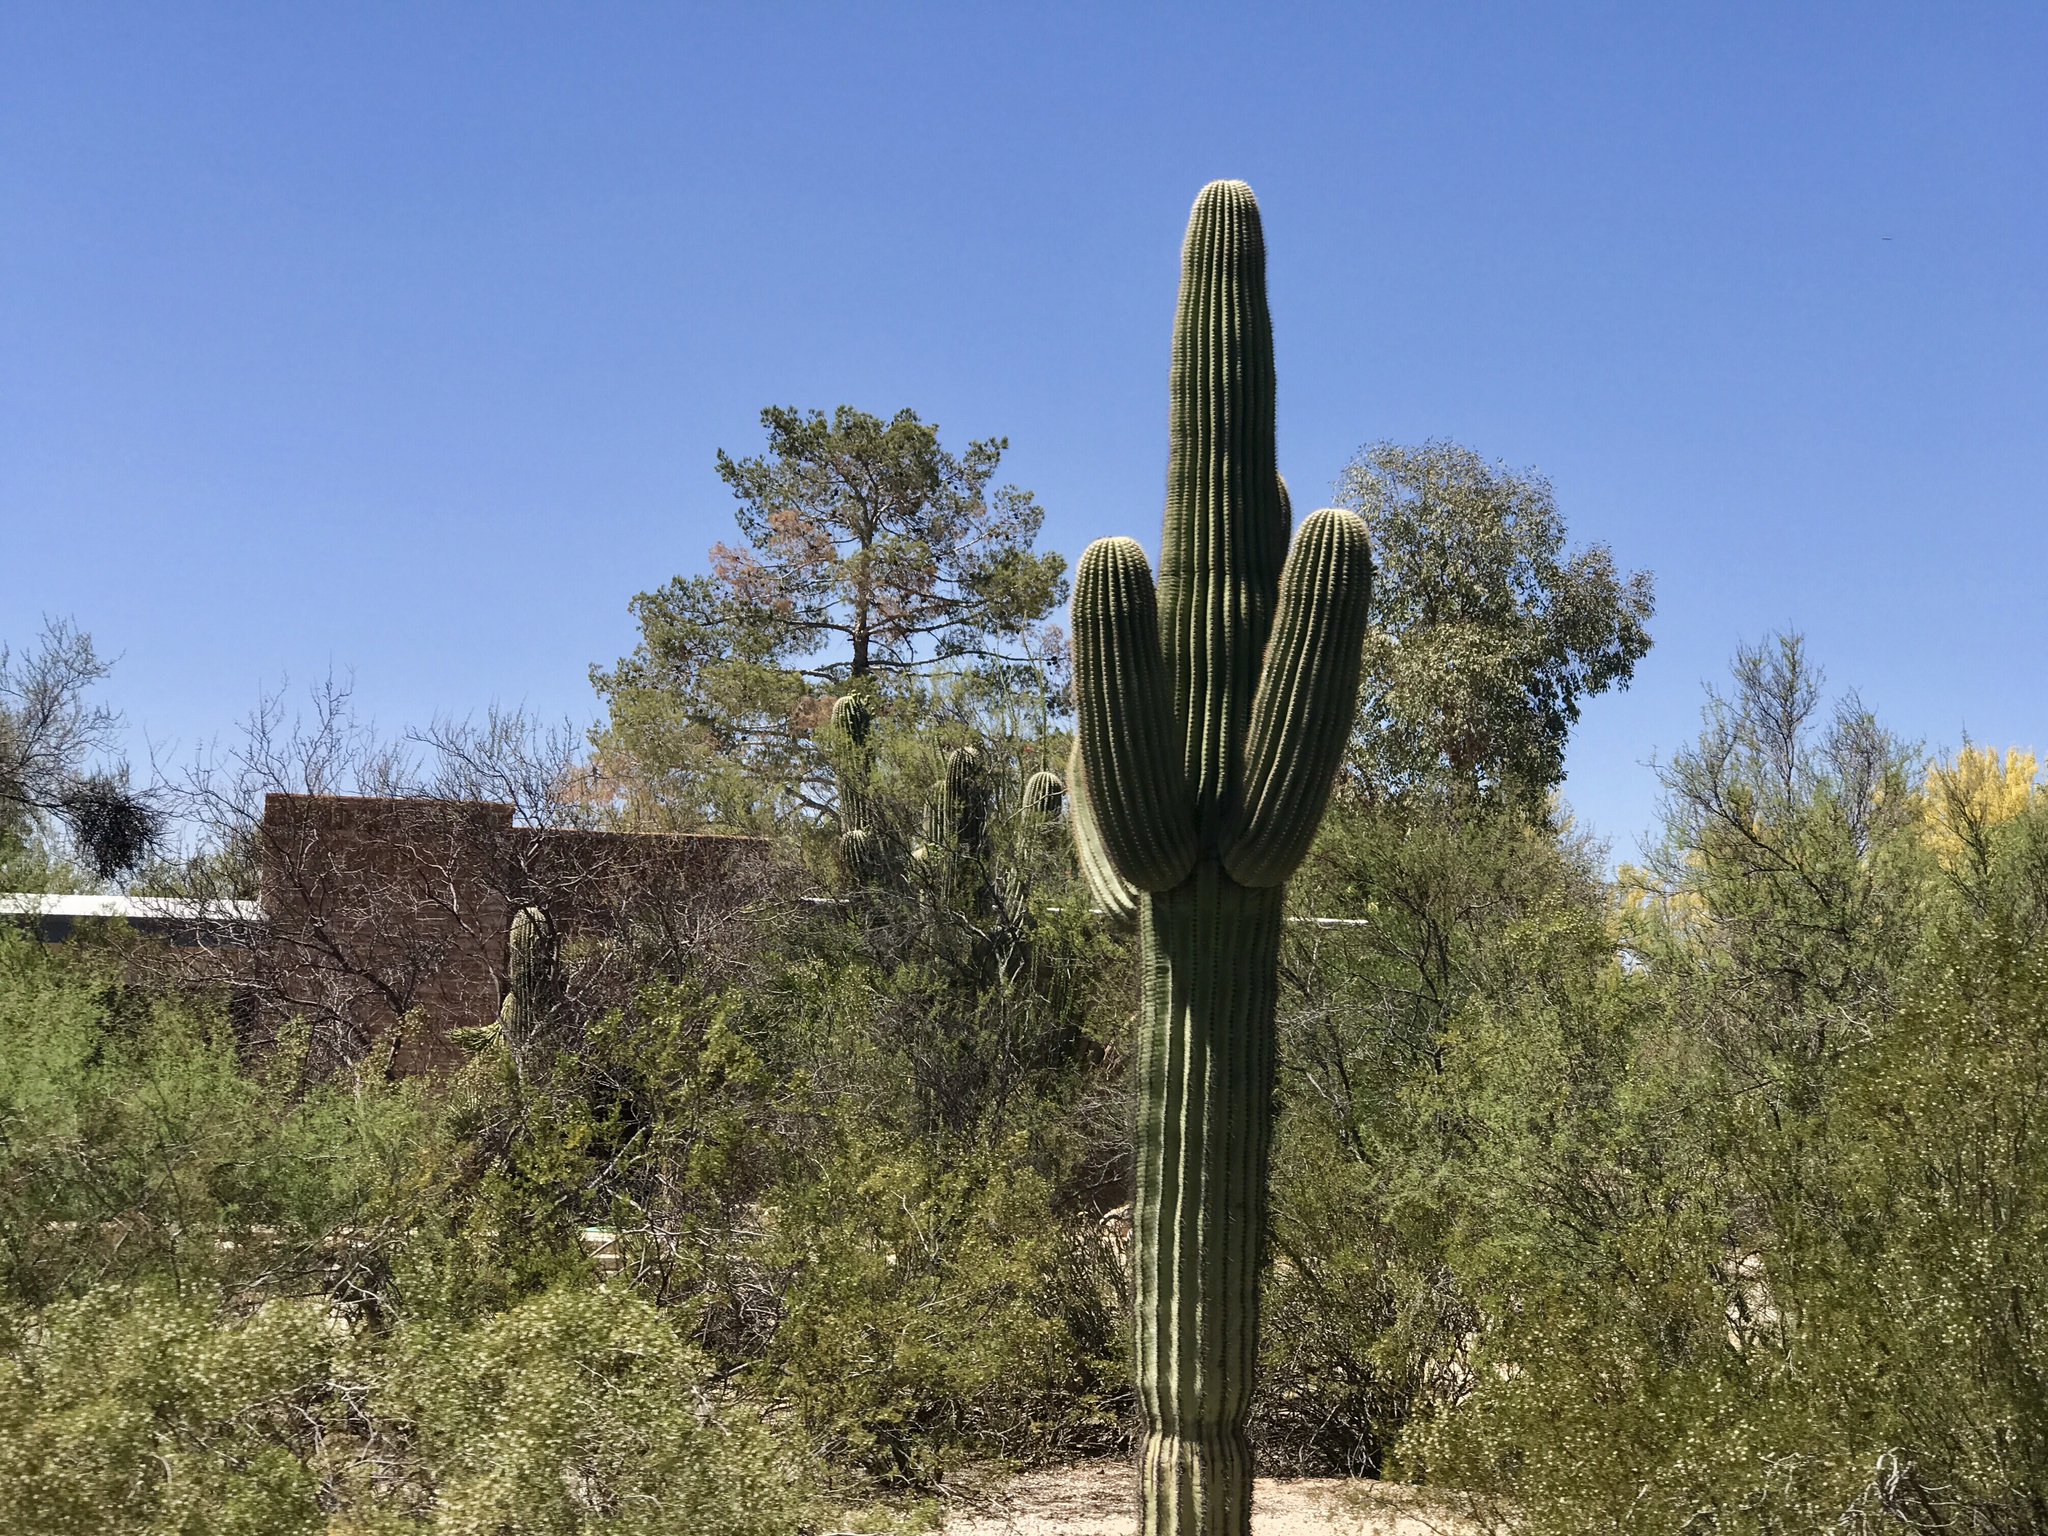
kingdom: Plantae
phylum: Tracheophyta
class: Magnoliopsida
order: Caryophyllales
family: Cactaceae
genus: Carnegiea
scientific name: Carnegiea gigantea
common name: Saguaro
